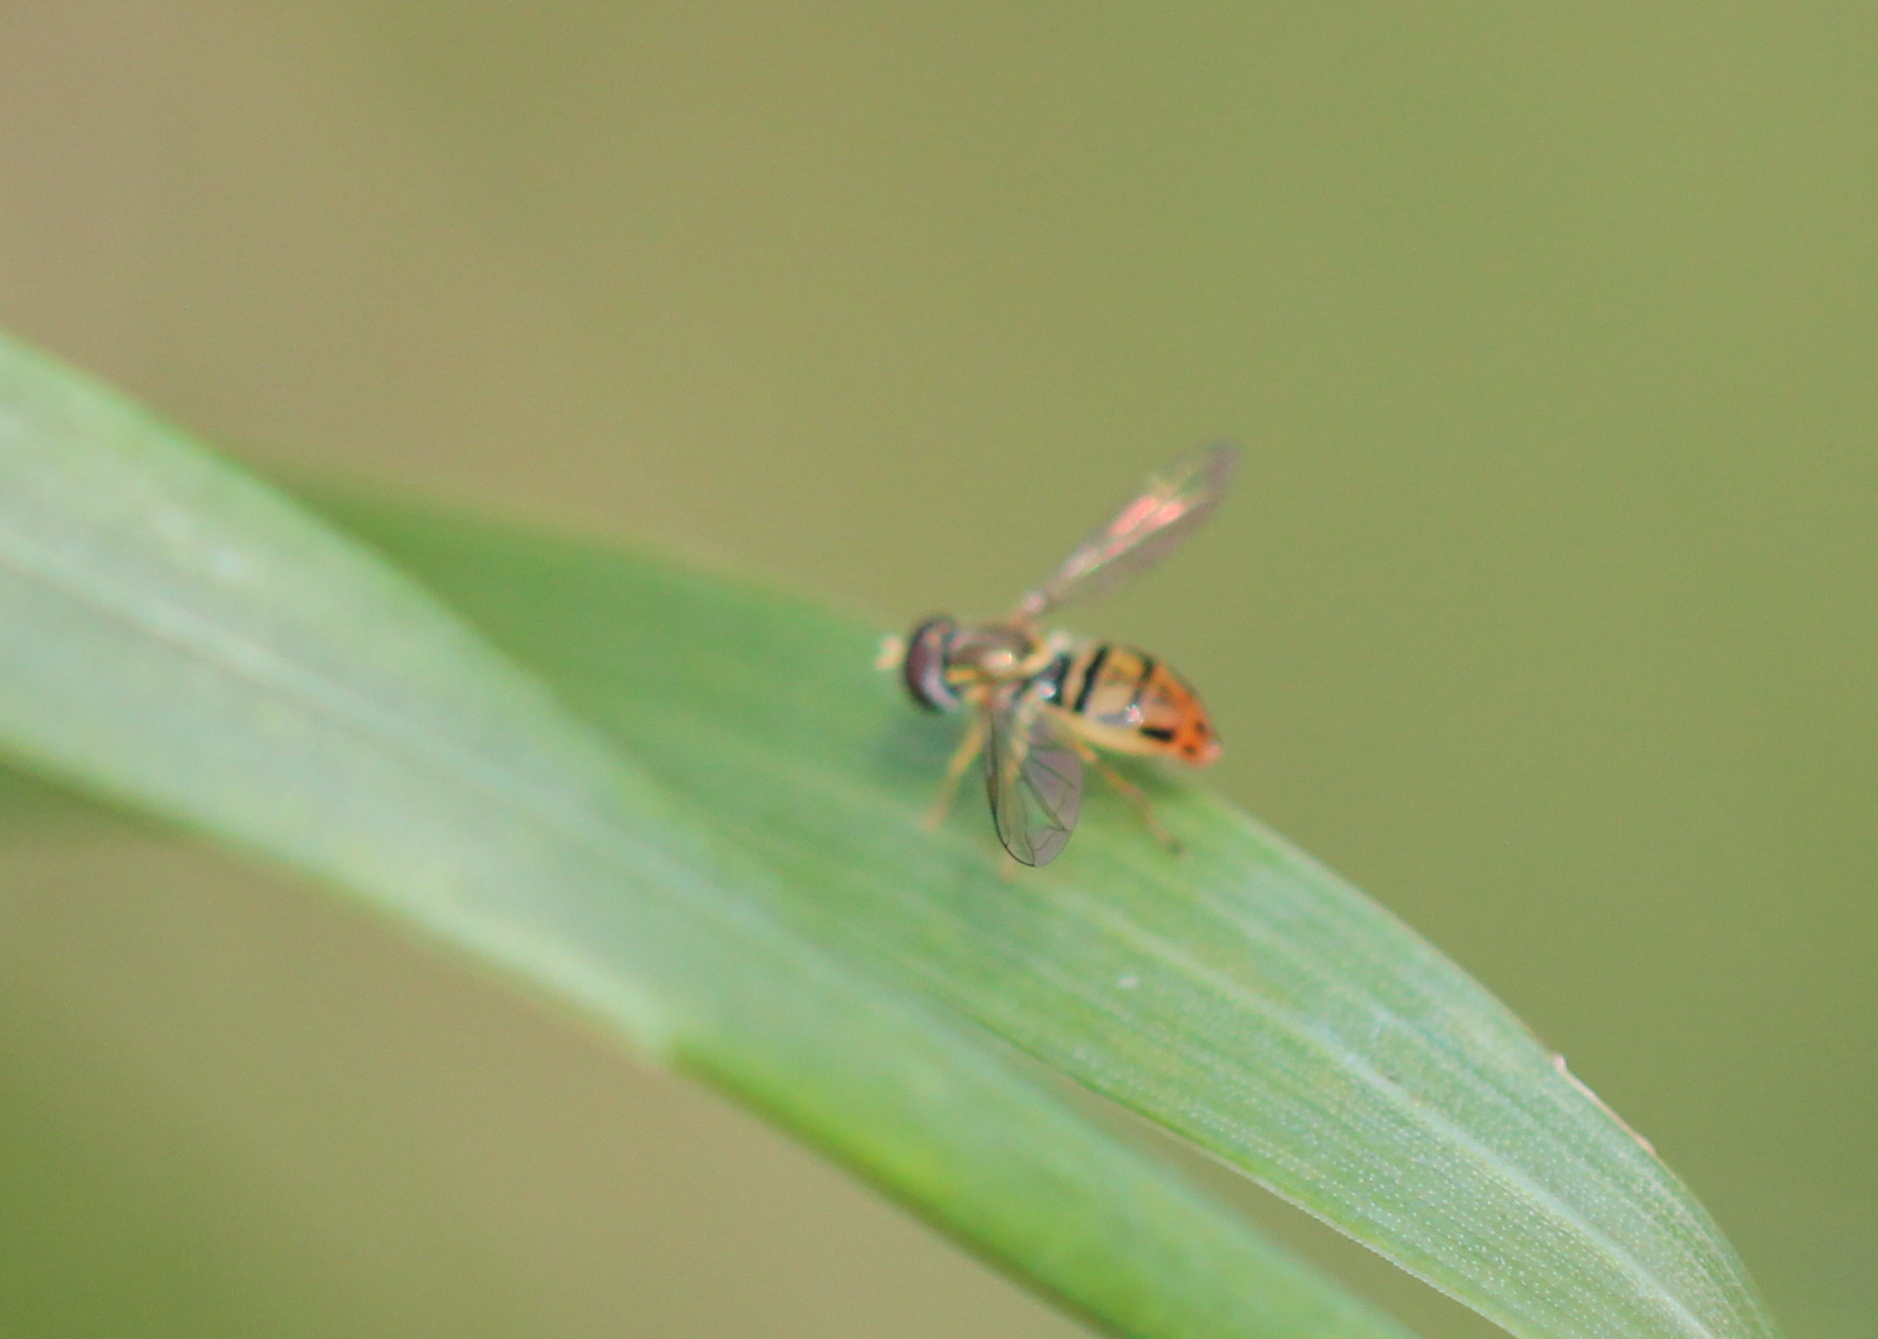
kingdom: Animalia
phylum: Arthropoda
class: Insecta
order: Diptera
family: Syrphidae
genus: Toxomerus
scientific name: Toxomerus marginatus
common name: Syrphid fly
